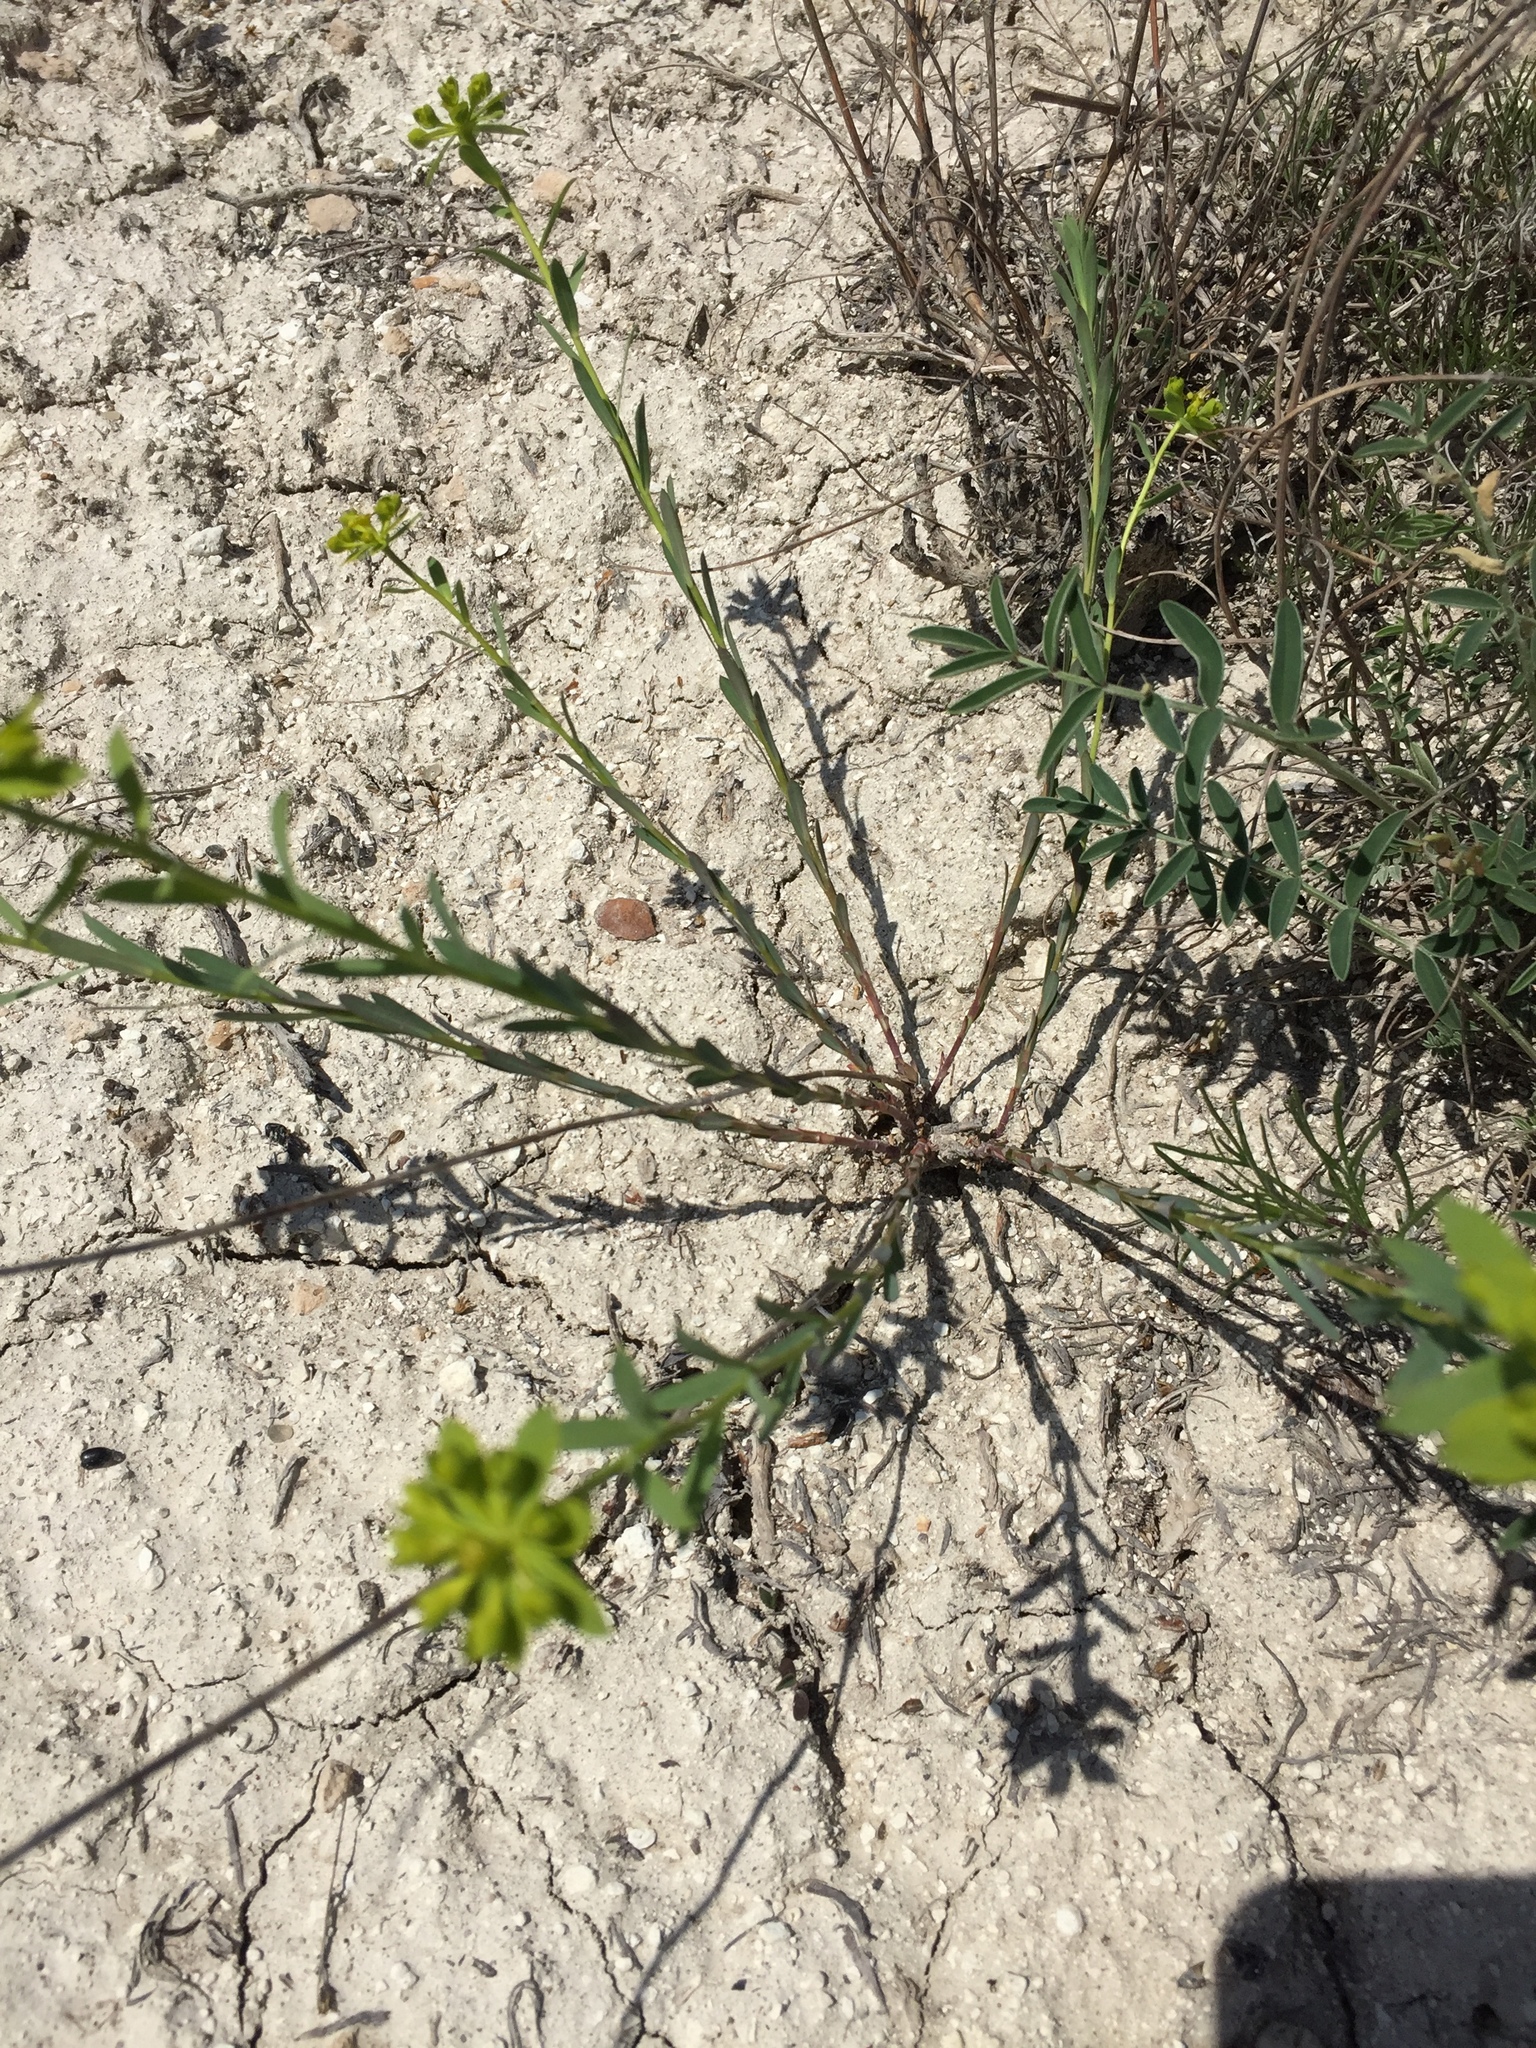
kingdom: Plantae
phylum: Tracheophyta
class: Magnoliopsida
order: Malpighiales
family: Euphorbiaceae
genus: Euphorbia
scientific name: Euphorbia seguieriana
